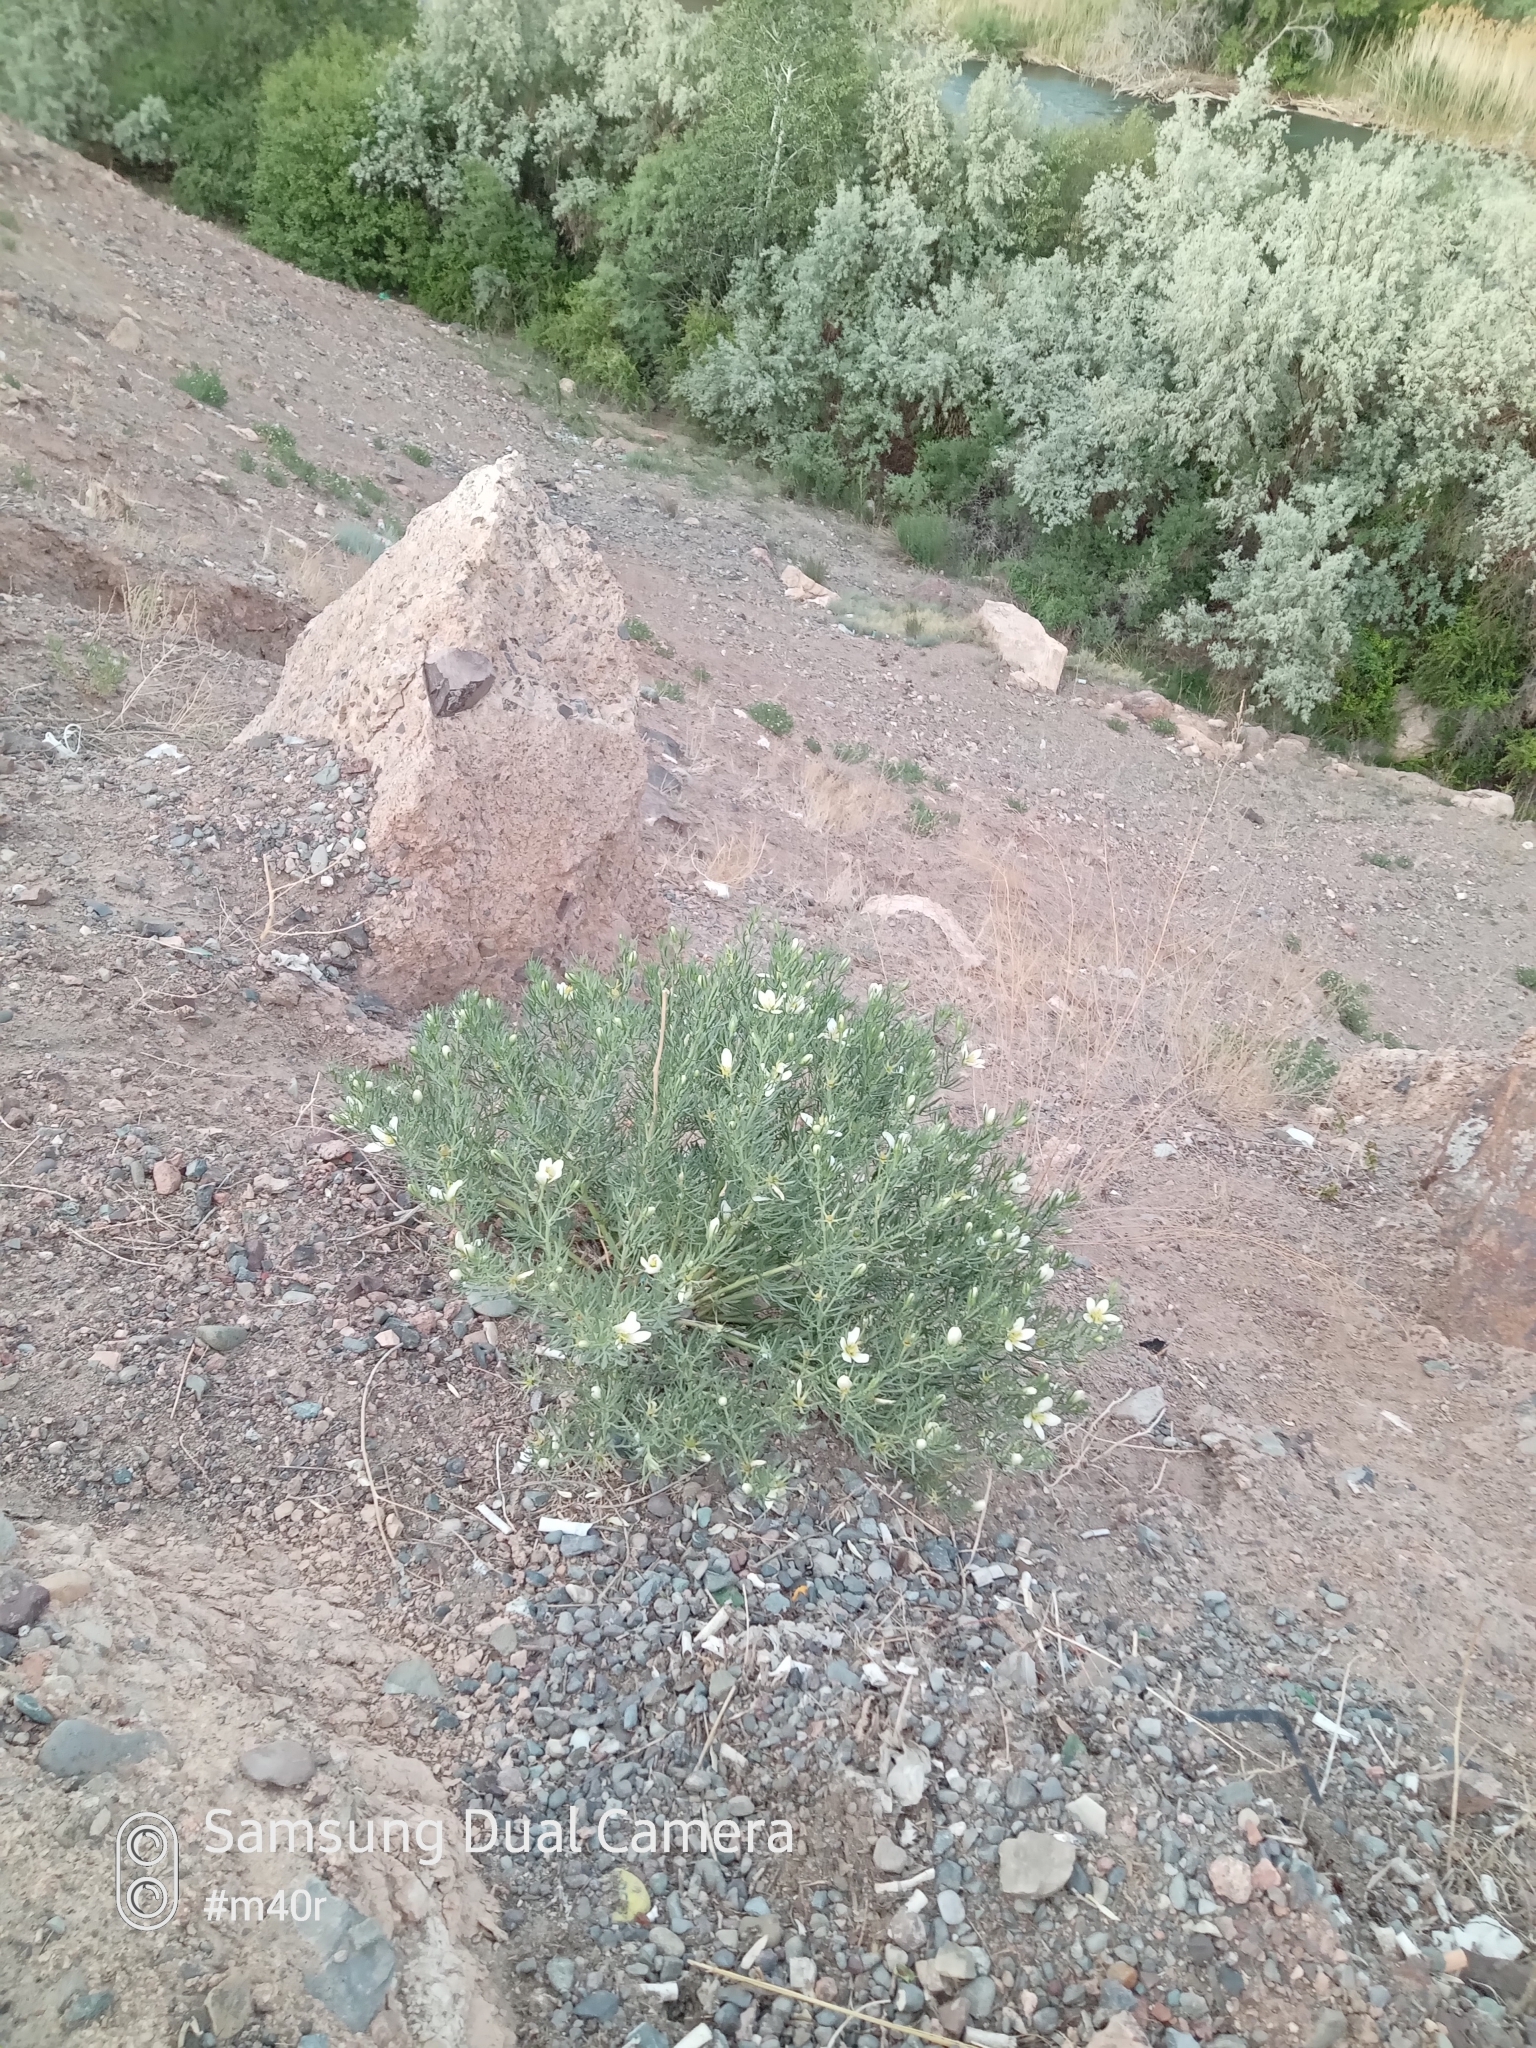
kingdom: Plantae
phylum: Tracheophyta
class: Magnoliopsida
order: Sapindales
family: Tetradiclidaceae
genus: Peganum
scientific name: Peganum harmala
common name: Harmal peganum
